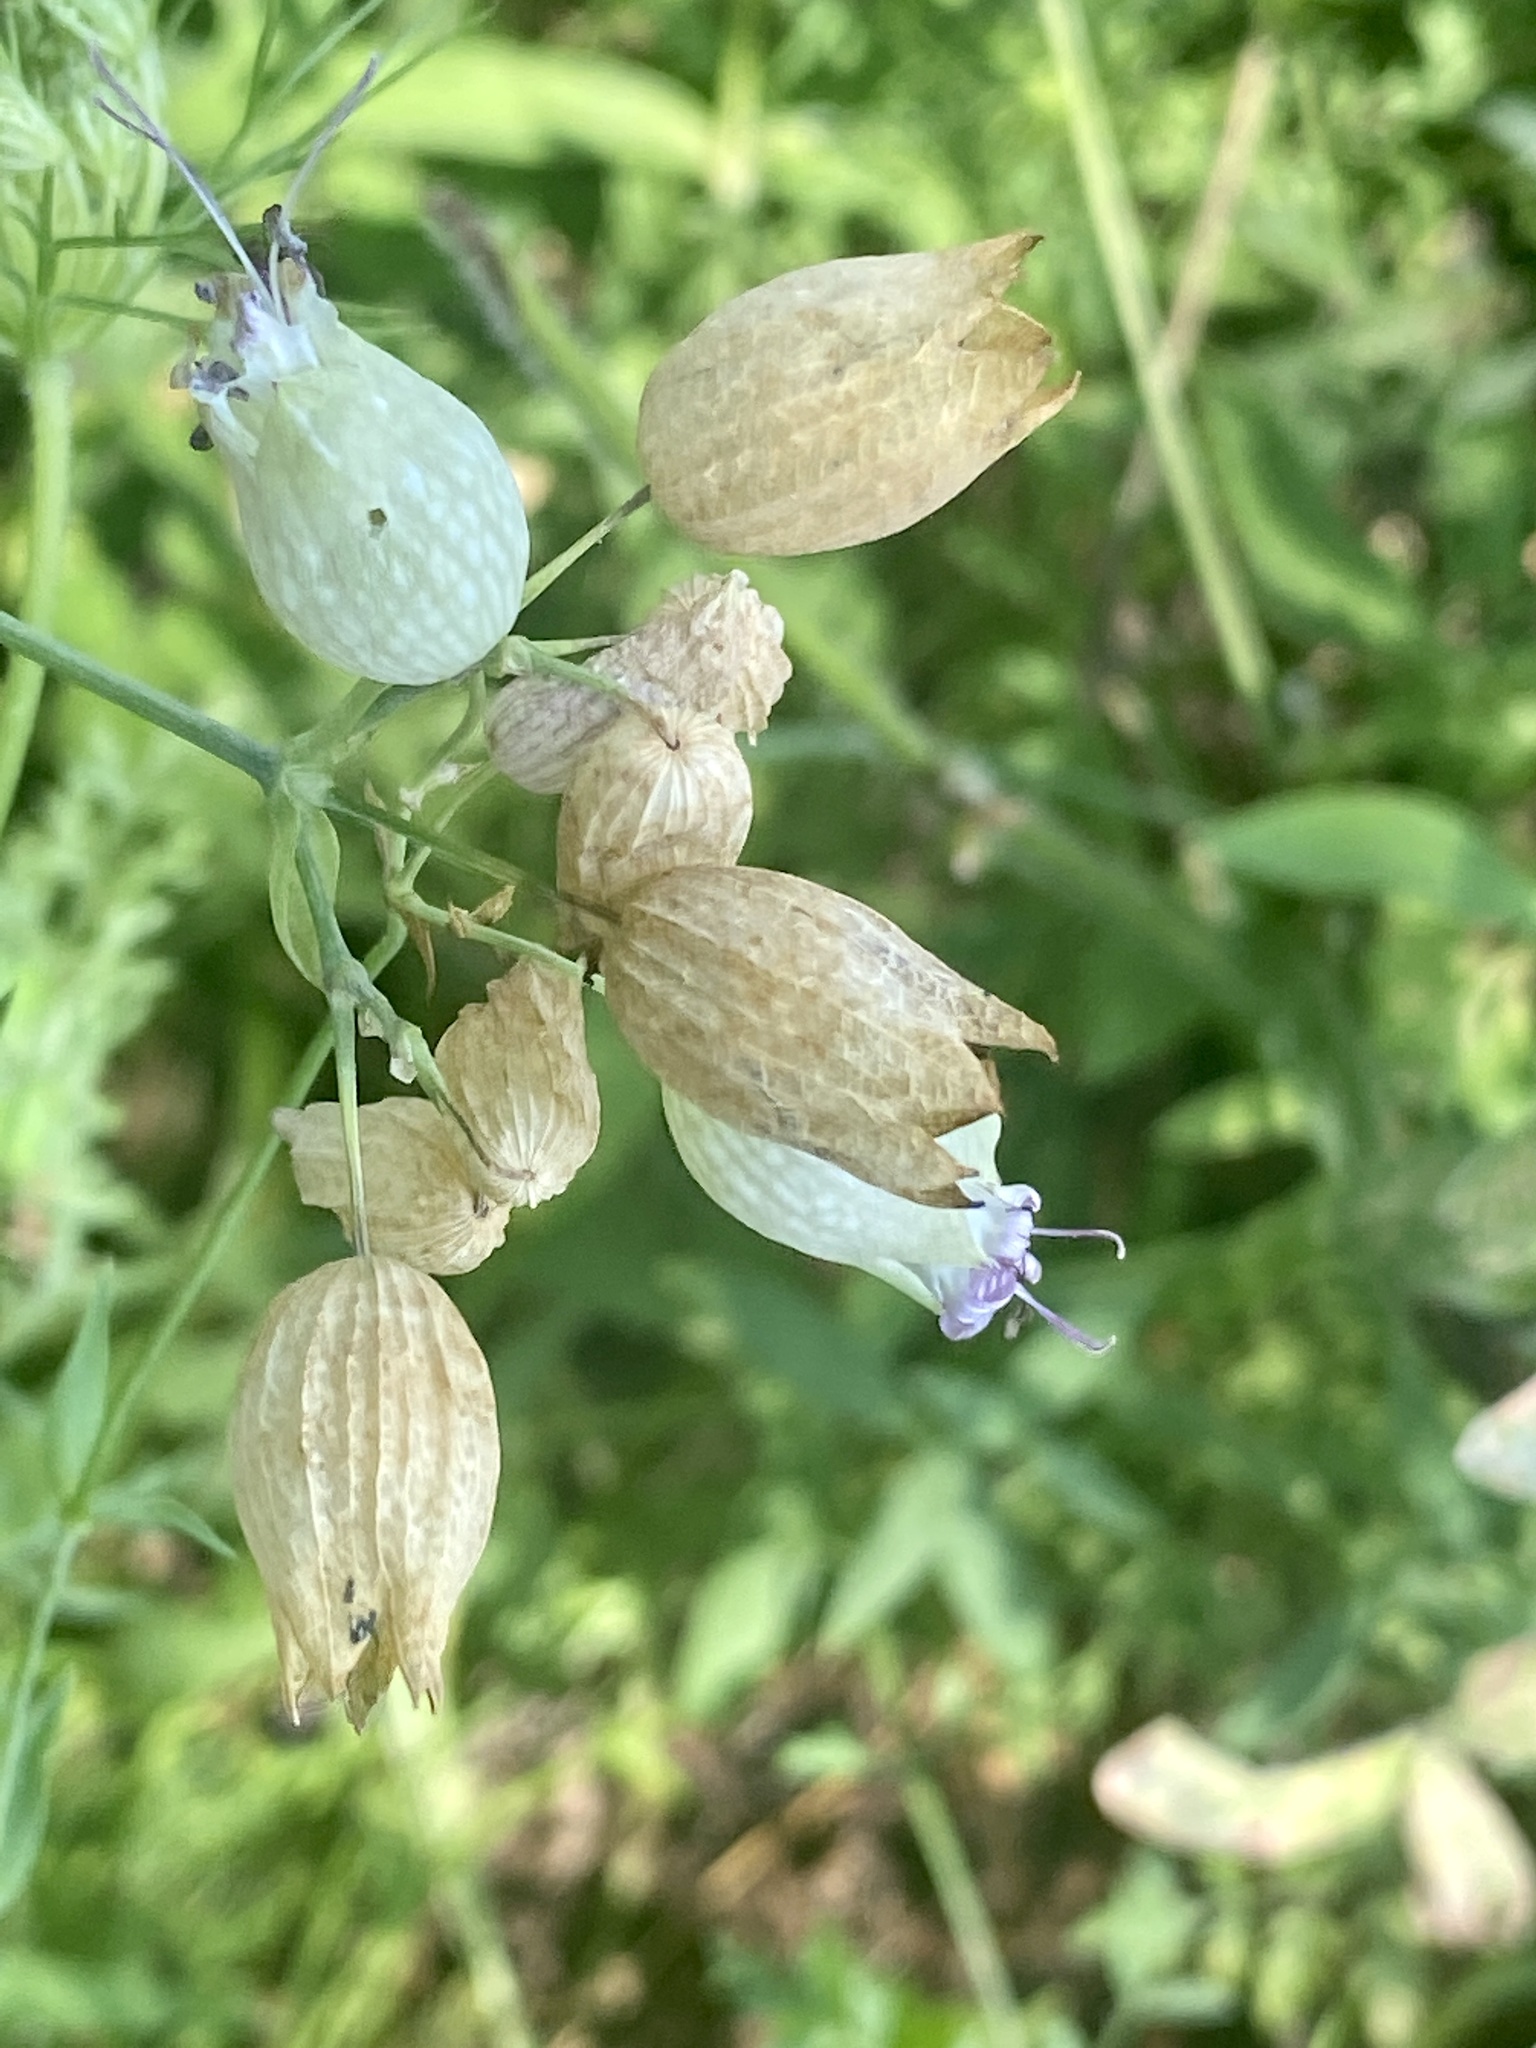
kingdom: Plantae
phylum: Tracheophyta
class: Magnoliopsida
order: Caryophyllales
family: Caryophyllaceae
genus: Silene
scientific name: Silene vulgaris
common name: Bladder campion
